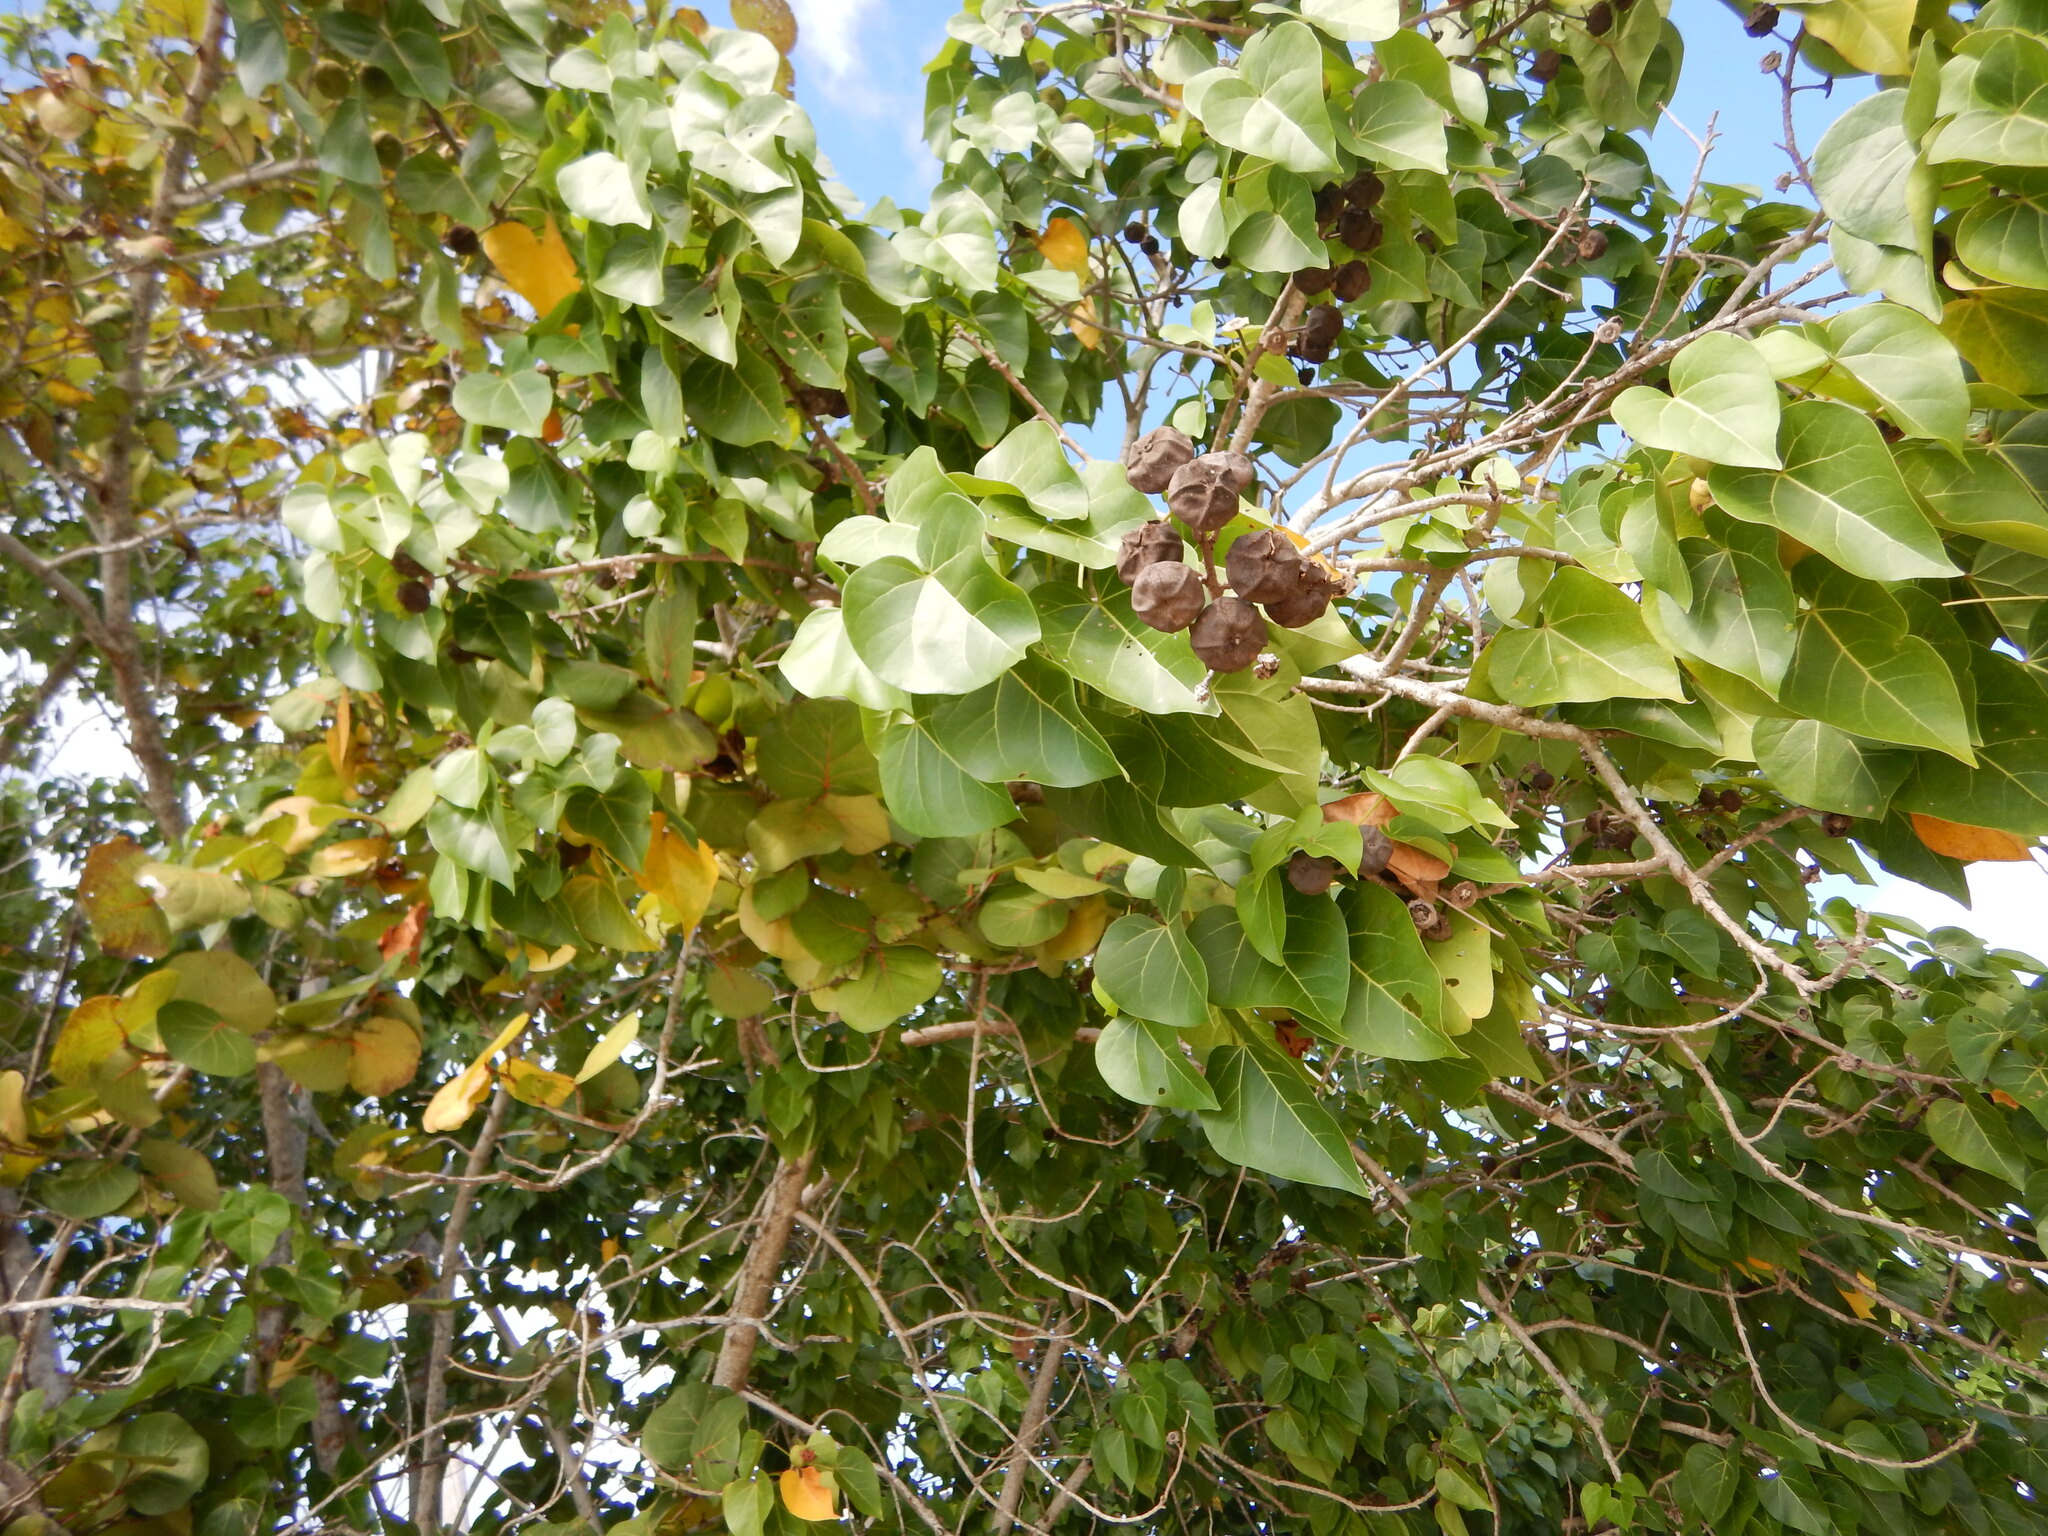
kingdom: Plantae
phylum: Tracheophyta
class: Magnoliopsida
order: Malvales
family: Malvaceae
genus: Thespesia
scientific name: Thespesia populnea
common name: Seaside mahoe
